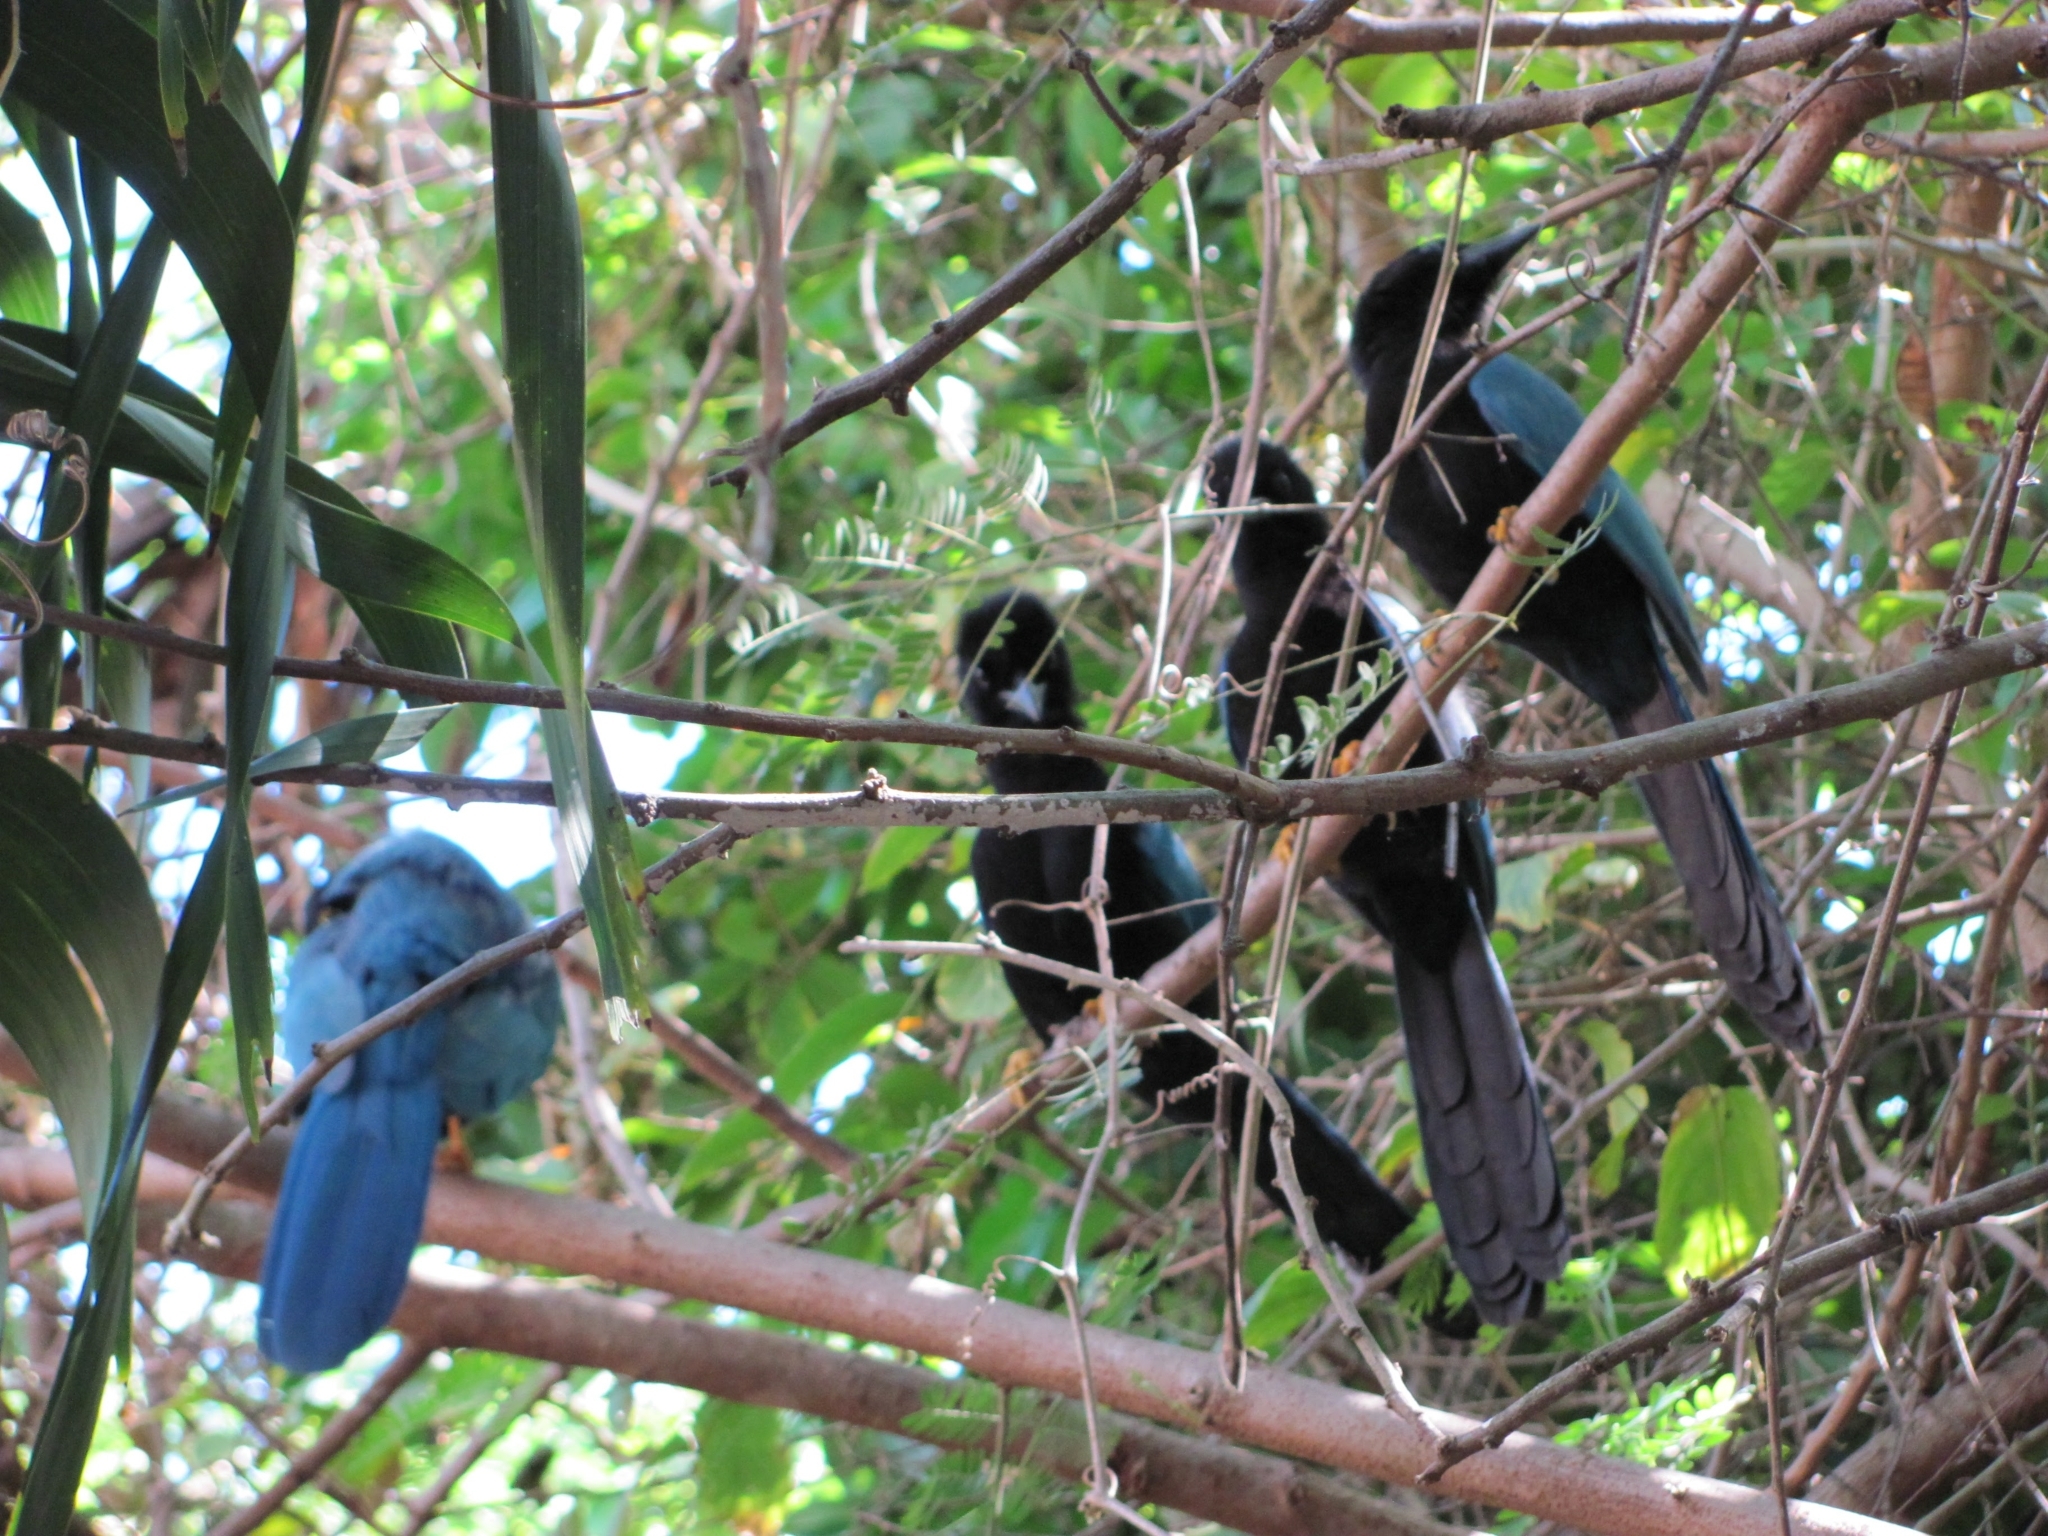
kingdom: Animalia
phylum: Chordata
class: Aves
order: Passeriformes
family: Corvidae
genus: Cyanocorax
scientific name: Cyanocorax yucatanicus
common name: Yucatan jay
